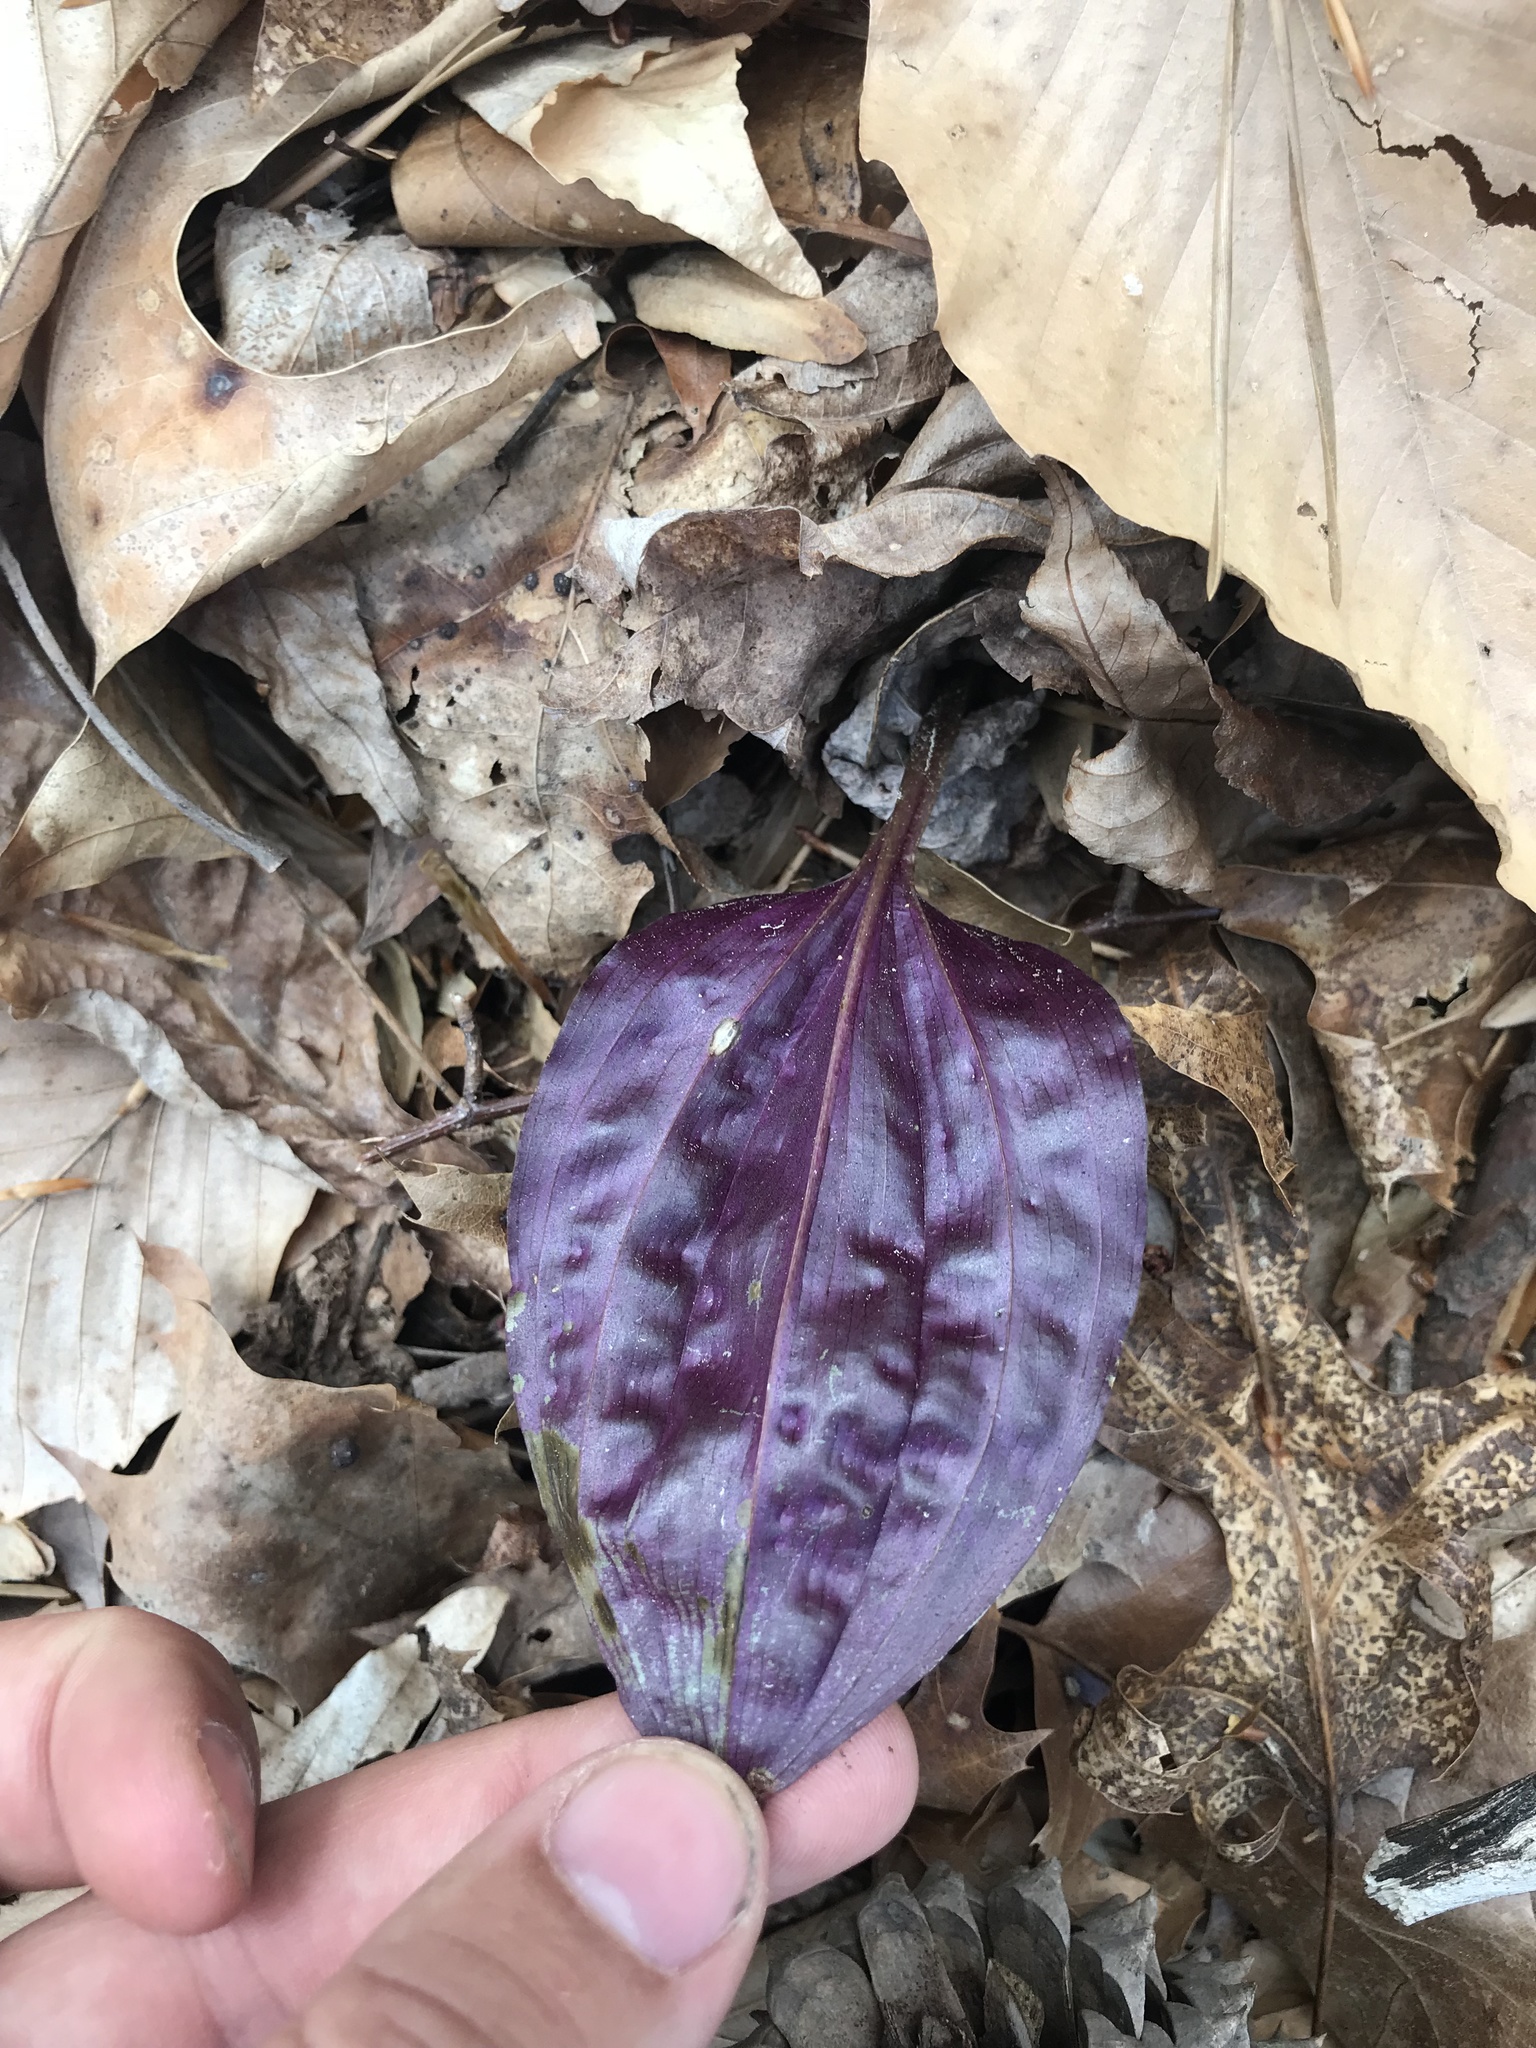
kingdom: Plantae
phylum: Tracheophyta
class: Liliopsida
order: Asparagales
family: Orchidaceae
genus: Tipularia
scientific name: Tipularia discolor
